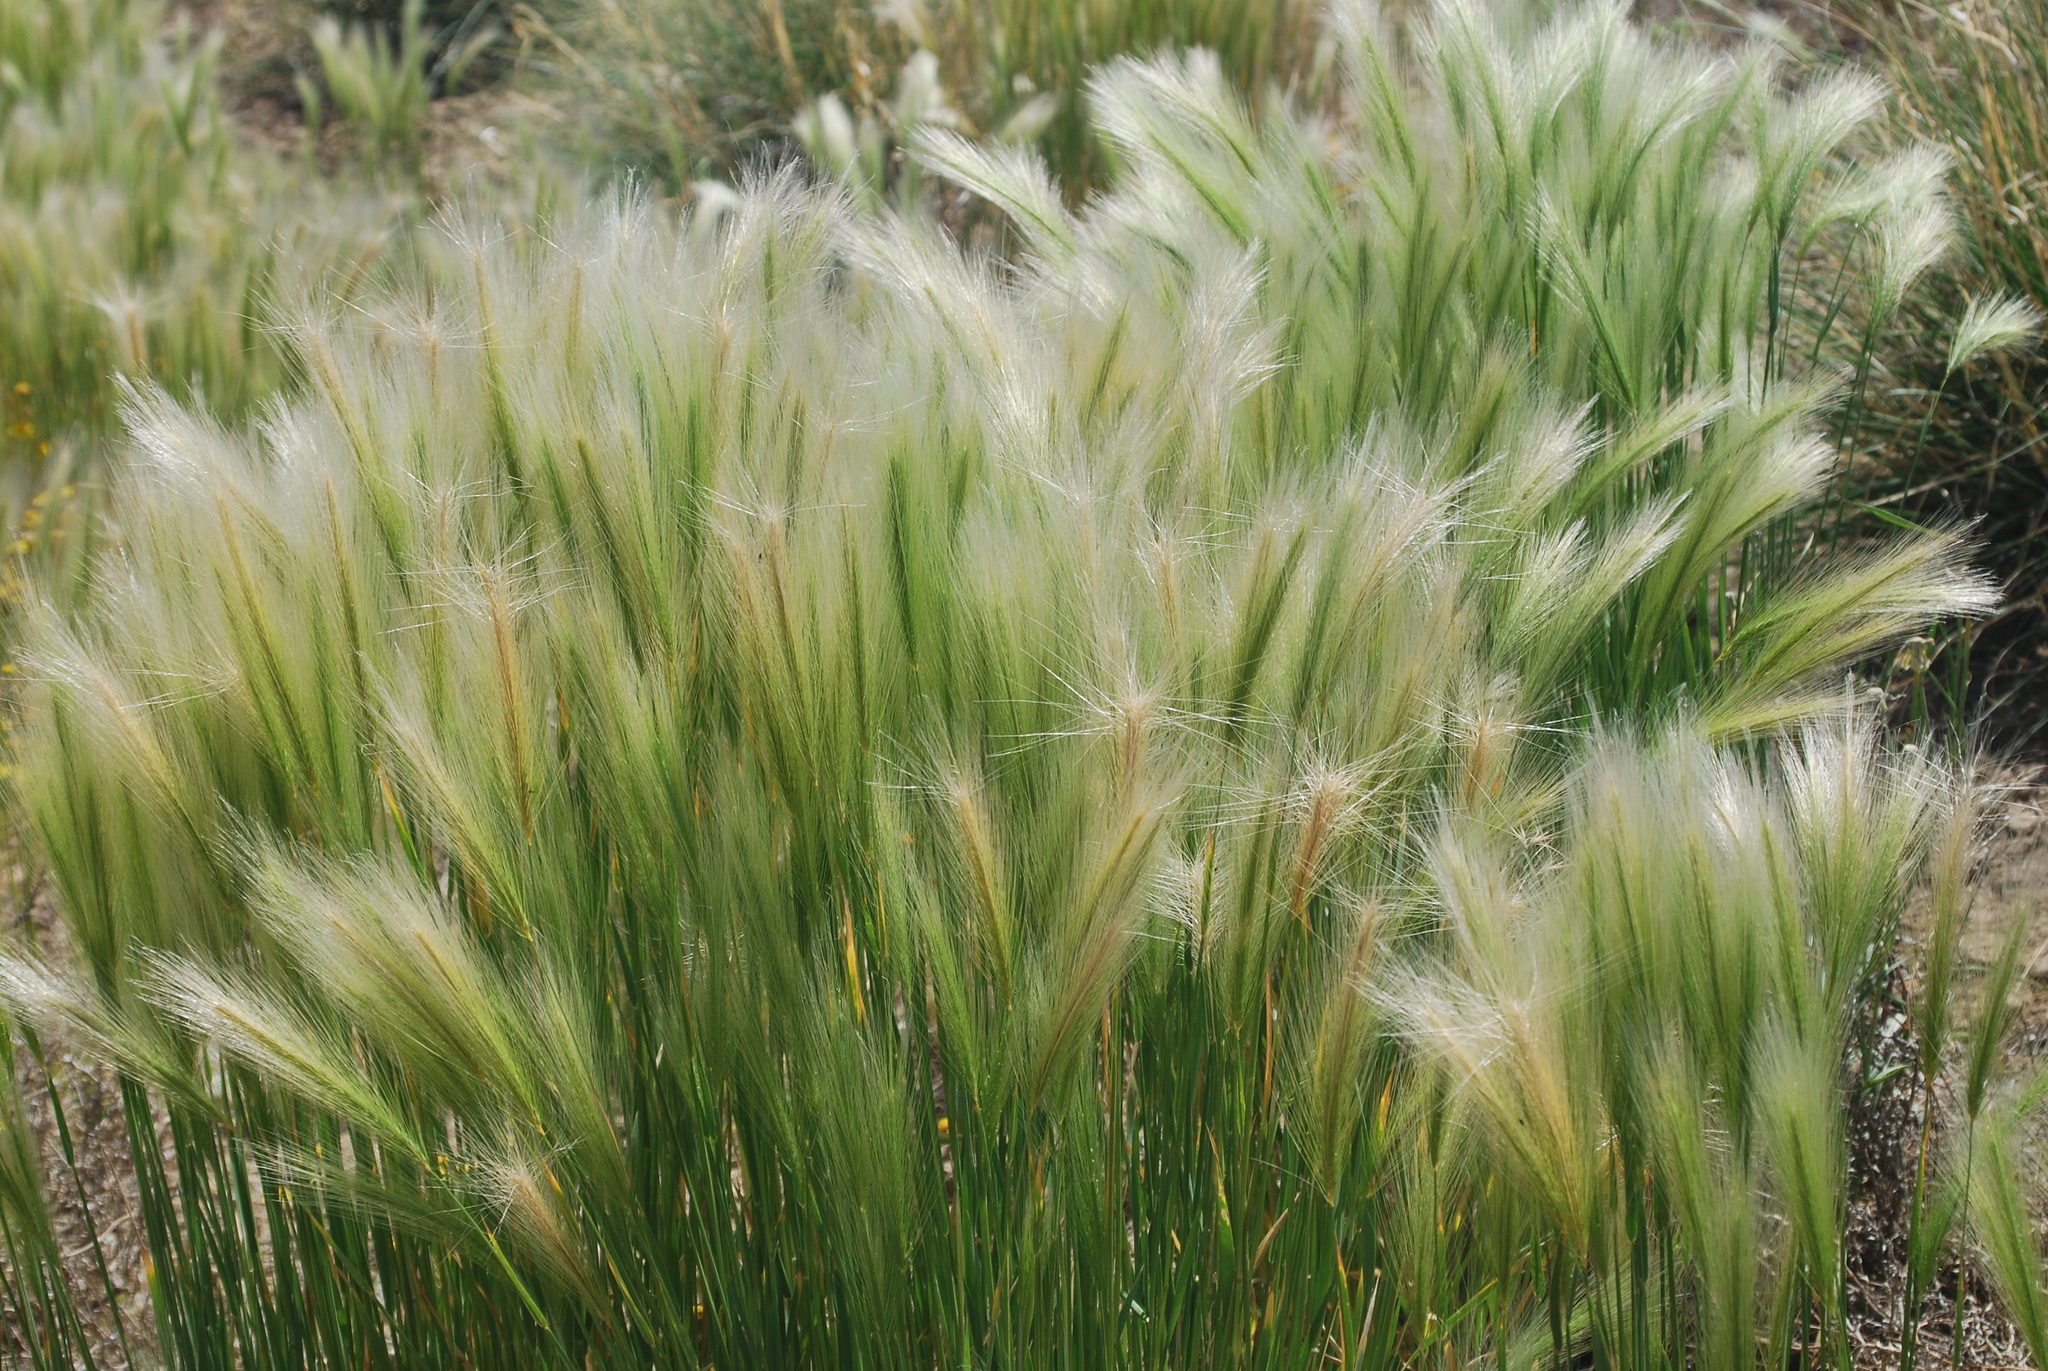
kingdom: Plantae
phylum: Tracheophyta
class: Liliopsida
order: Poales
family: Poaceae
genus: Hordeum
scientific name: Hordeum jubatum
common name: Foxtail barley
